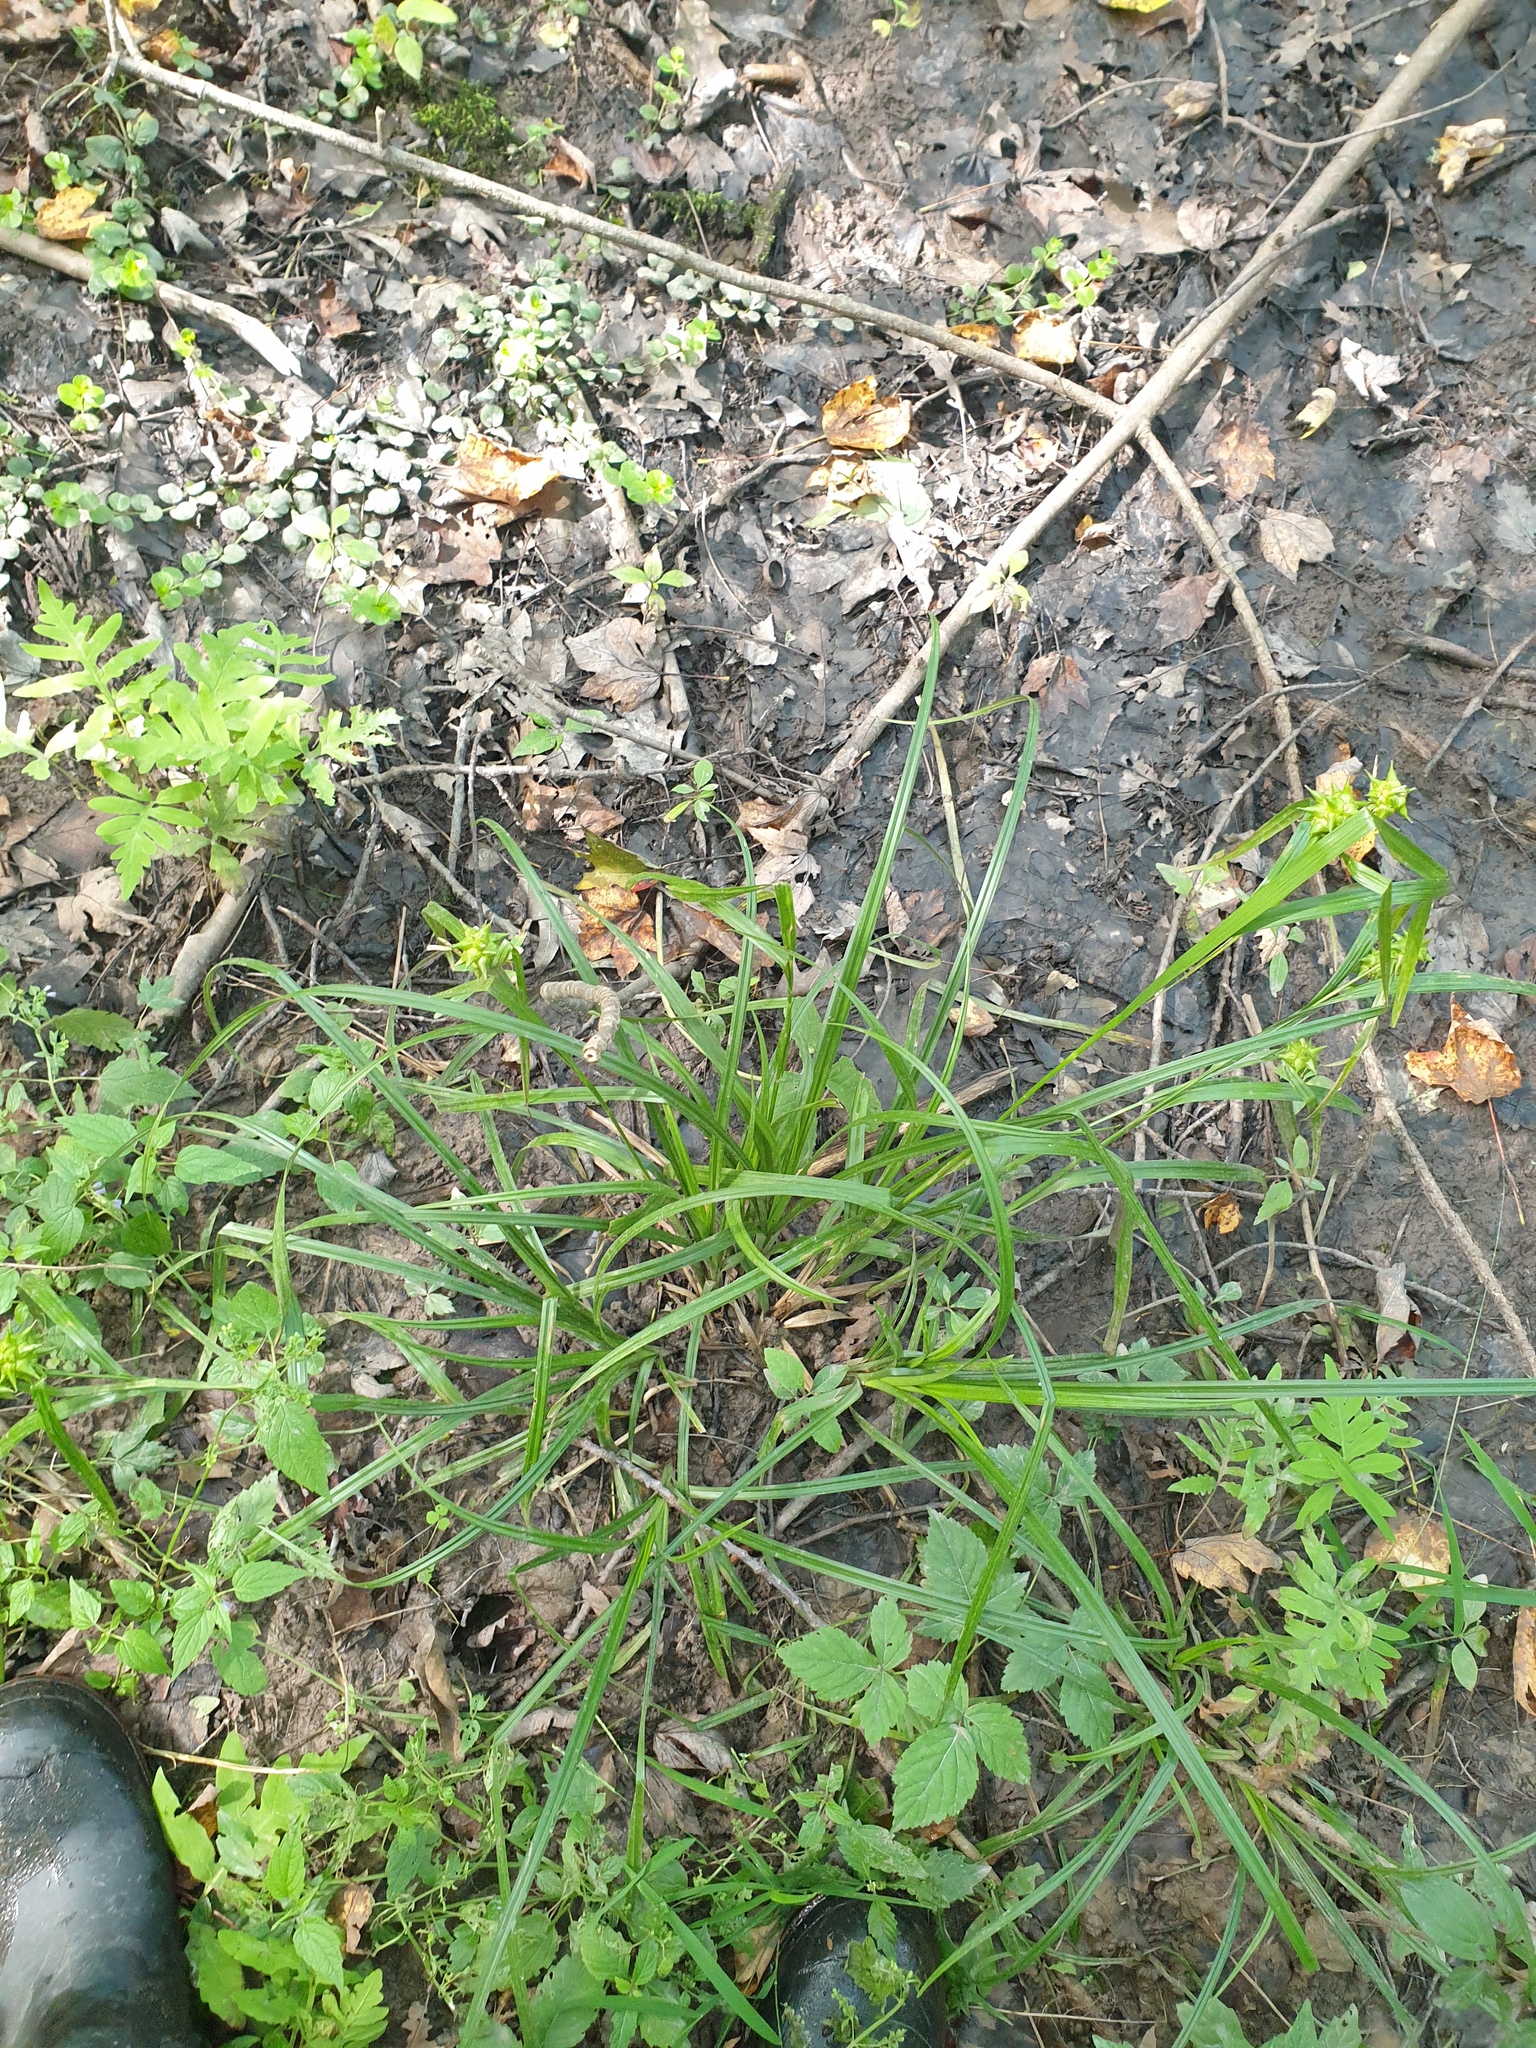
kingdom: Plantae
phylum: Tracheophyta
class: Liliopsida
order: Poales
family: Cyperaceae
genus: Carex
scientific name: Carex grayi
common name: Asa gray's sedge
